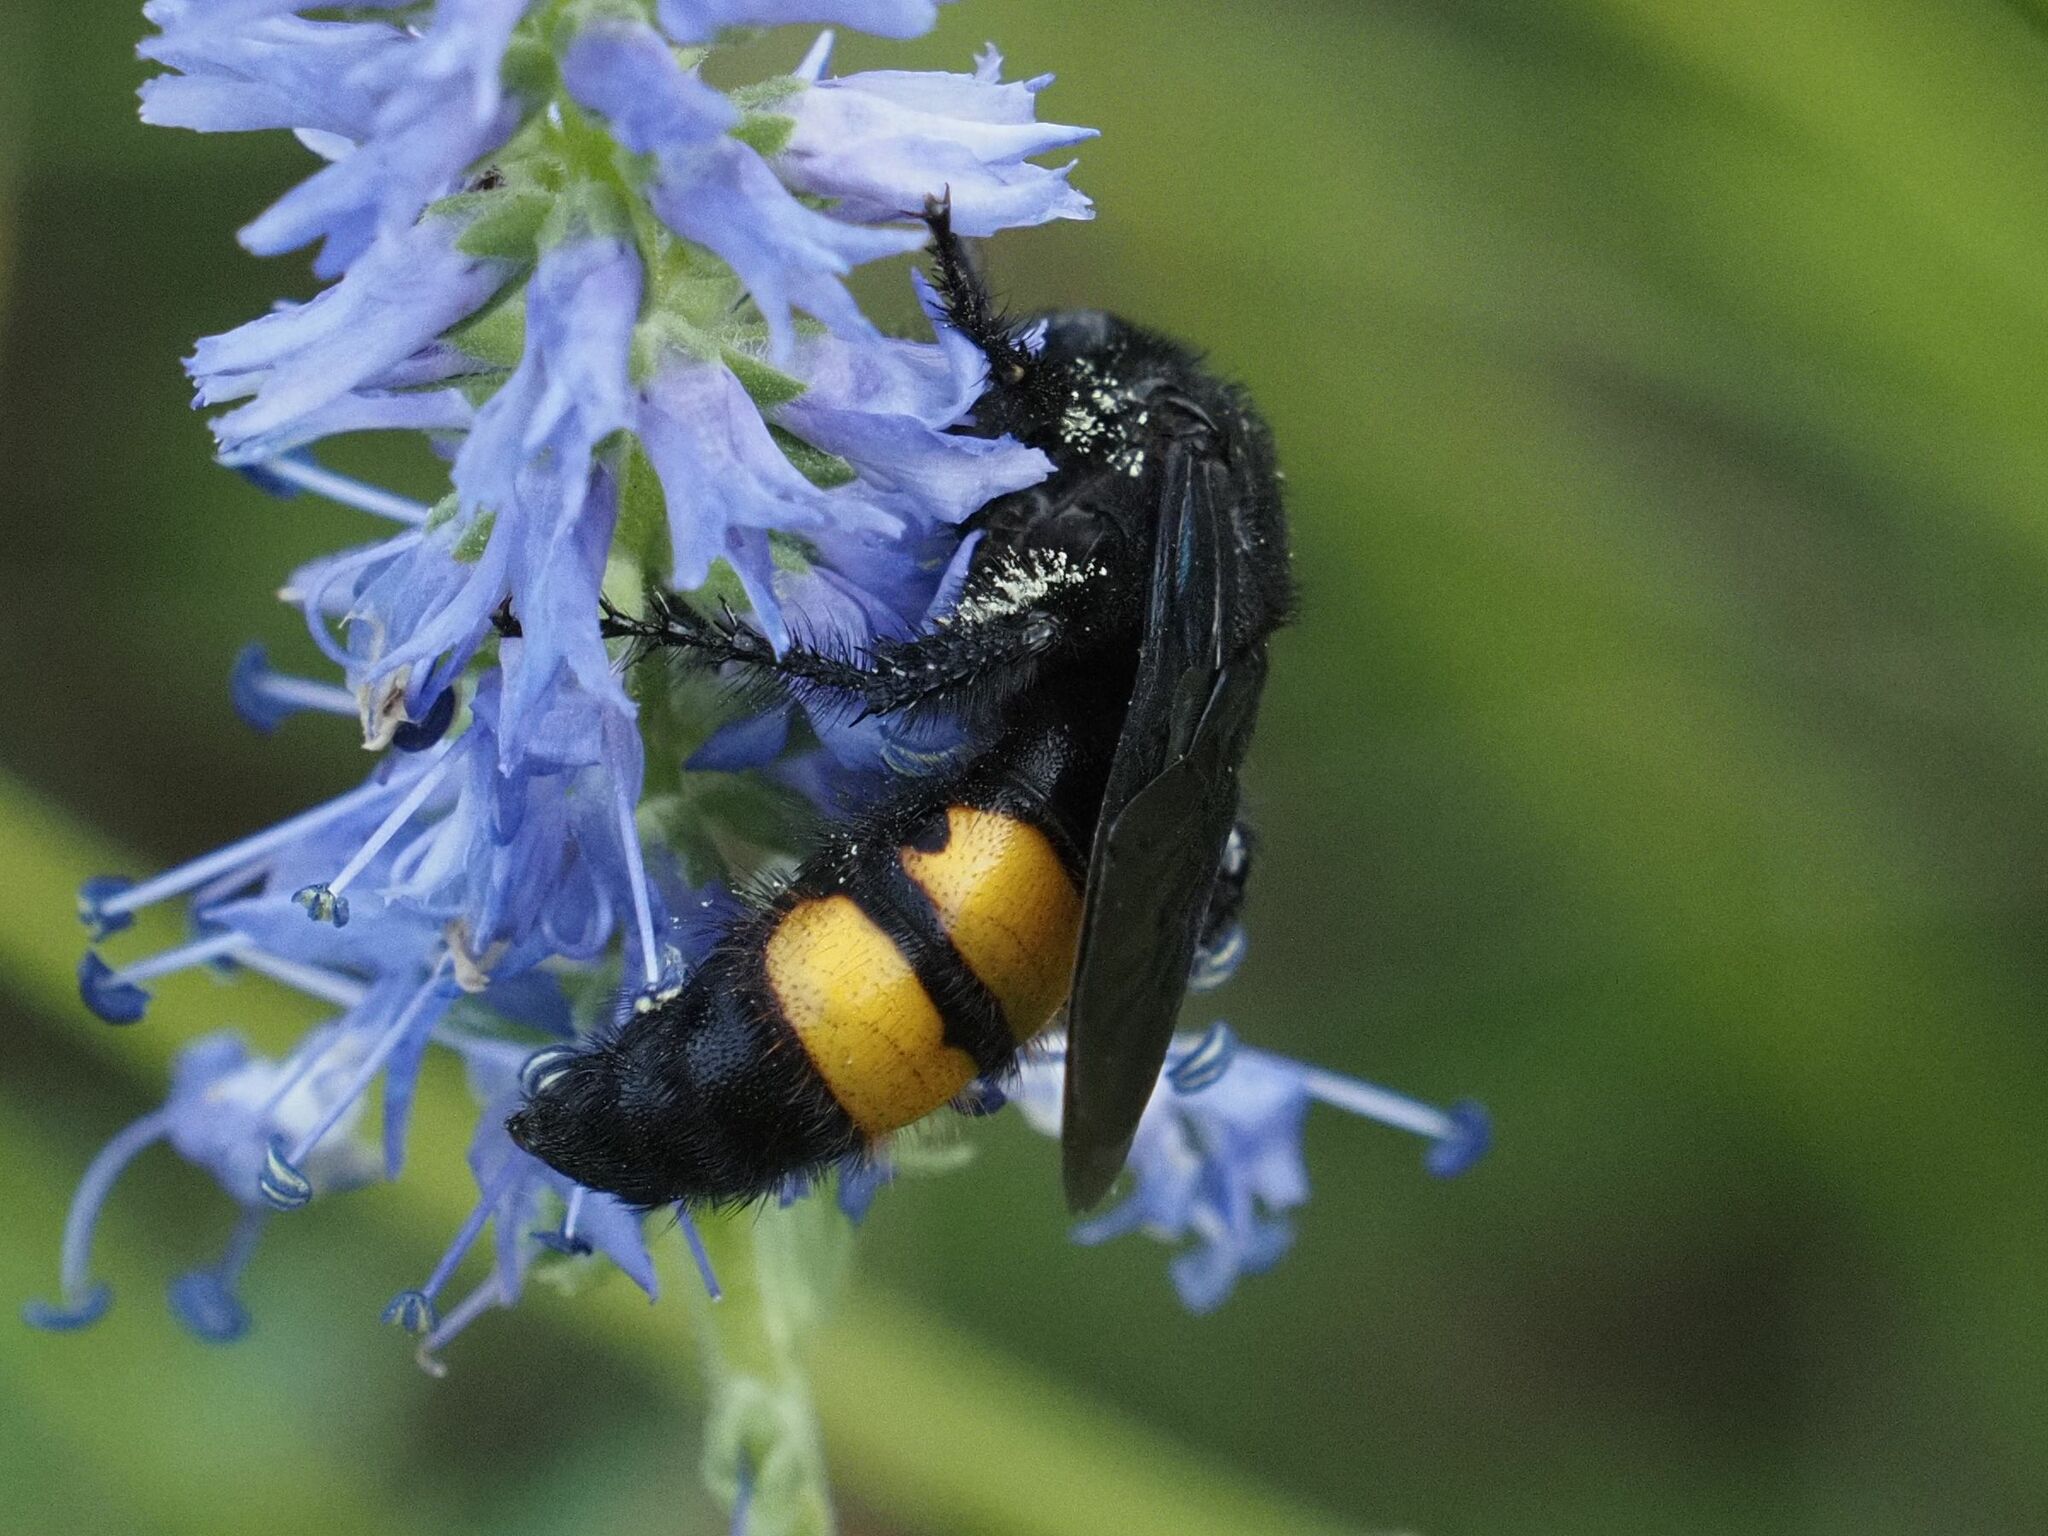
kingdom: Animalia
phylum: Arthropoda
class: Insecta
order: Hymenoptera
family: Scoliidae
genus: Scolia
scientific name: Scolia hirta
